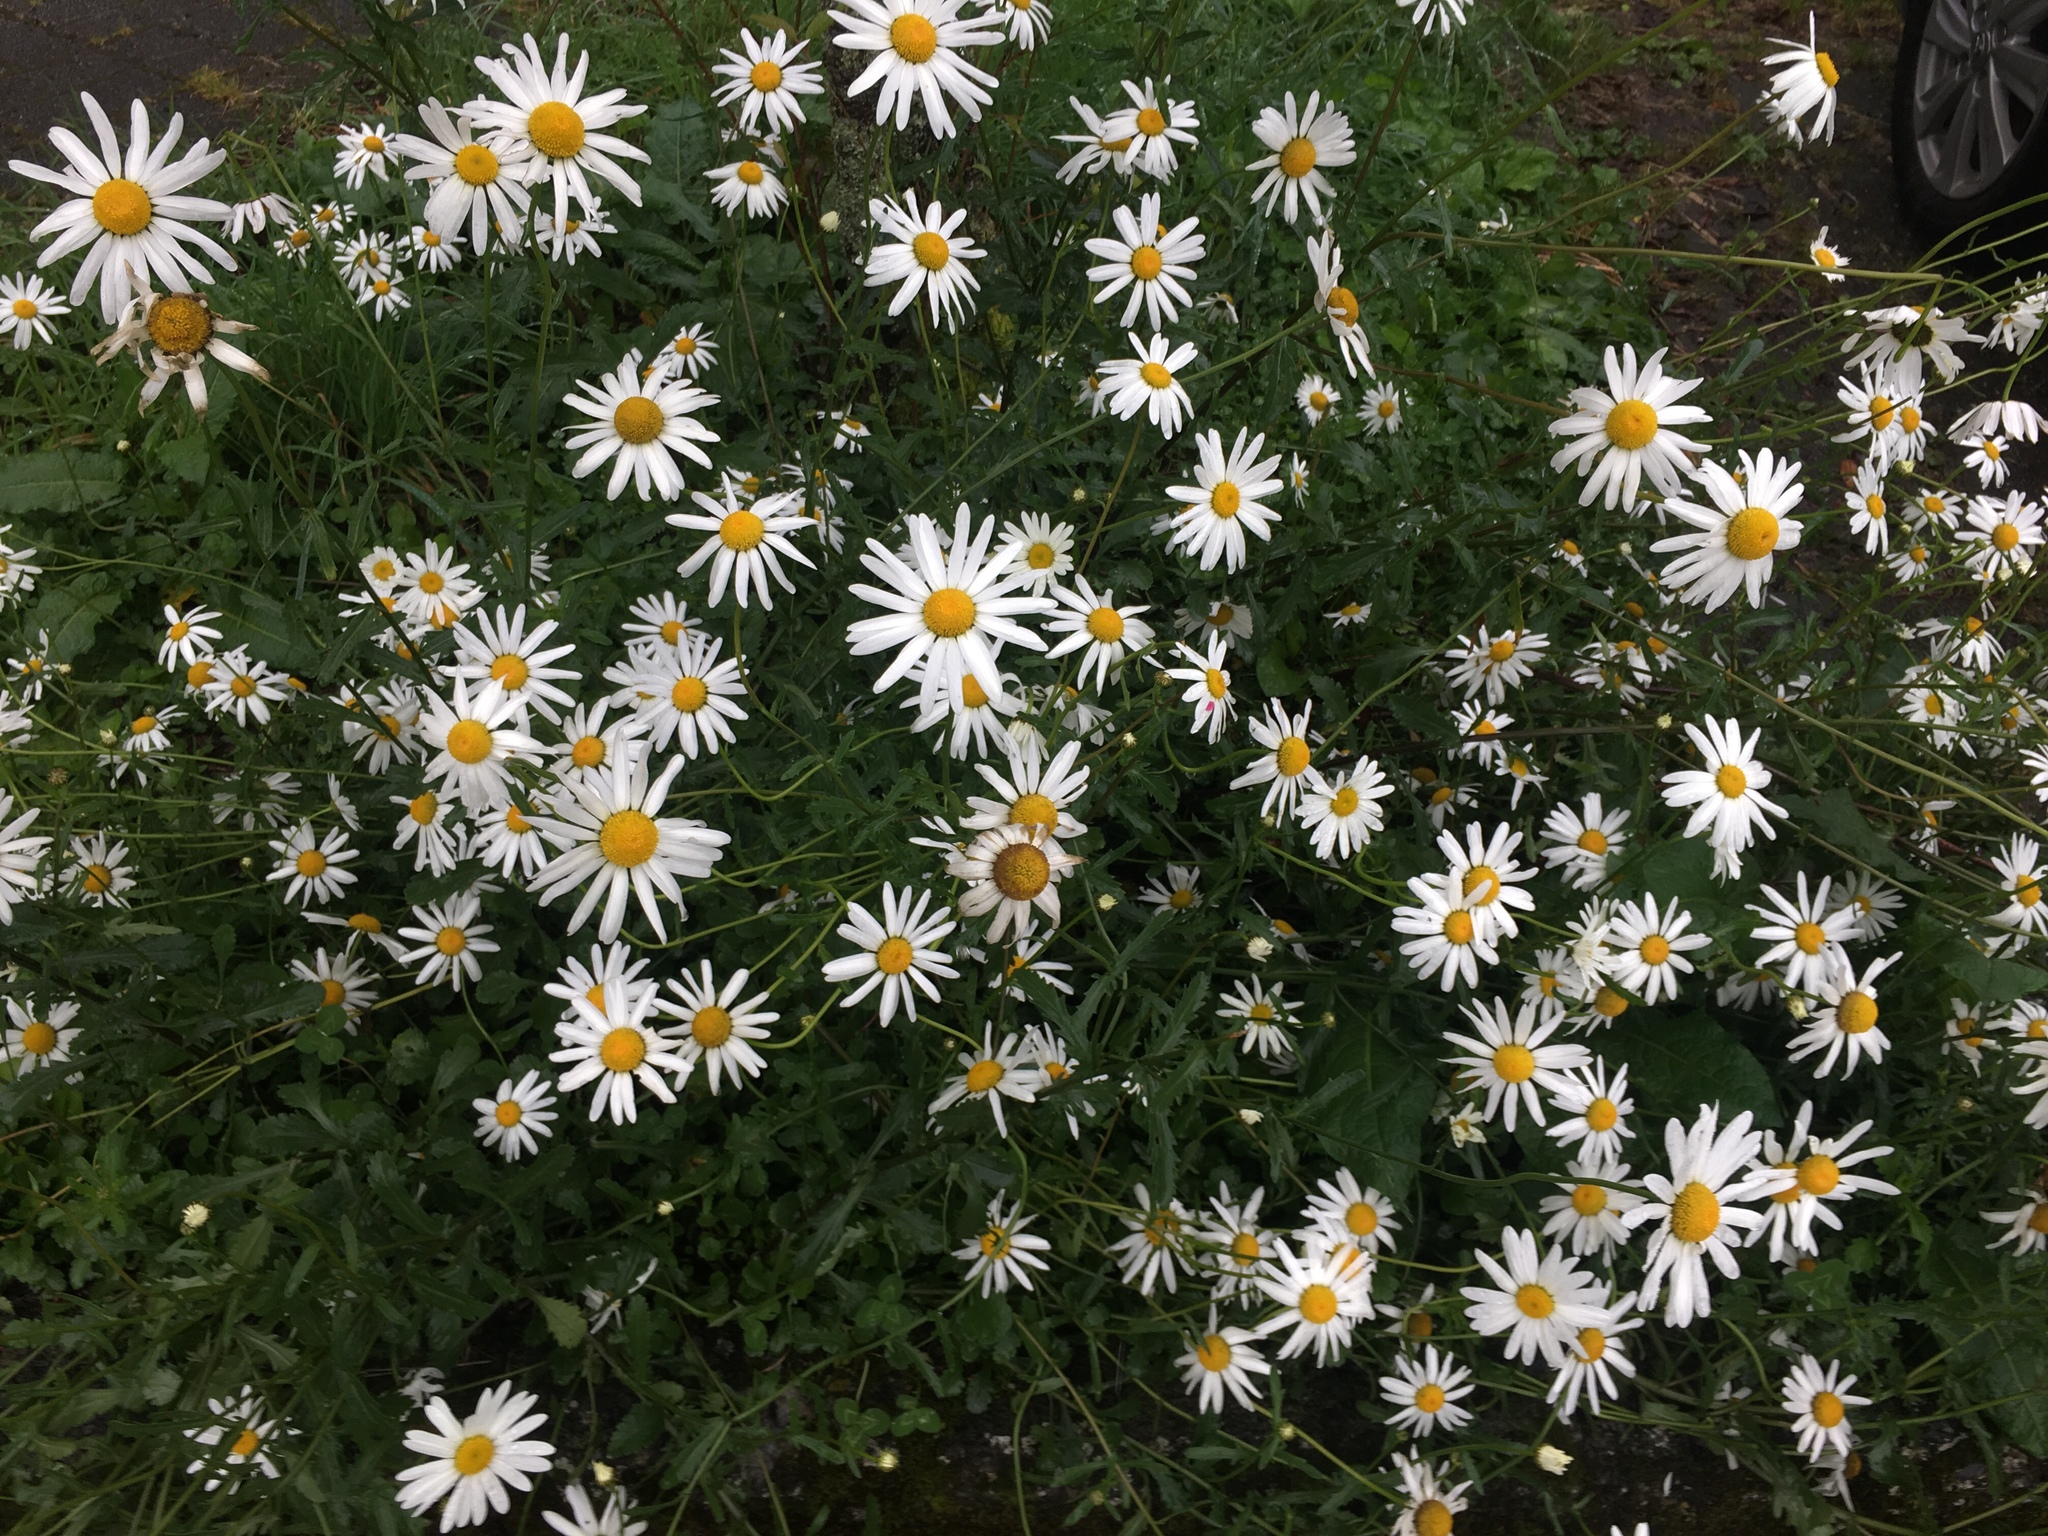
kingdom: Plantae
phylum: Tracheophyta
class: Magnoliopsida
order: Asterales
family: Asteraceae
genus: Leucanthemum
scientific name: Leucanthemum vulgare
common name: Oxeye daisy
